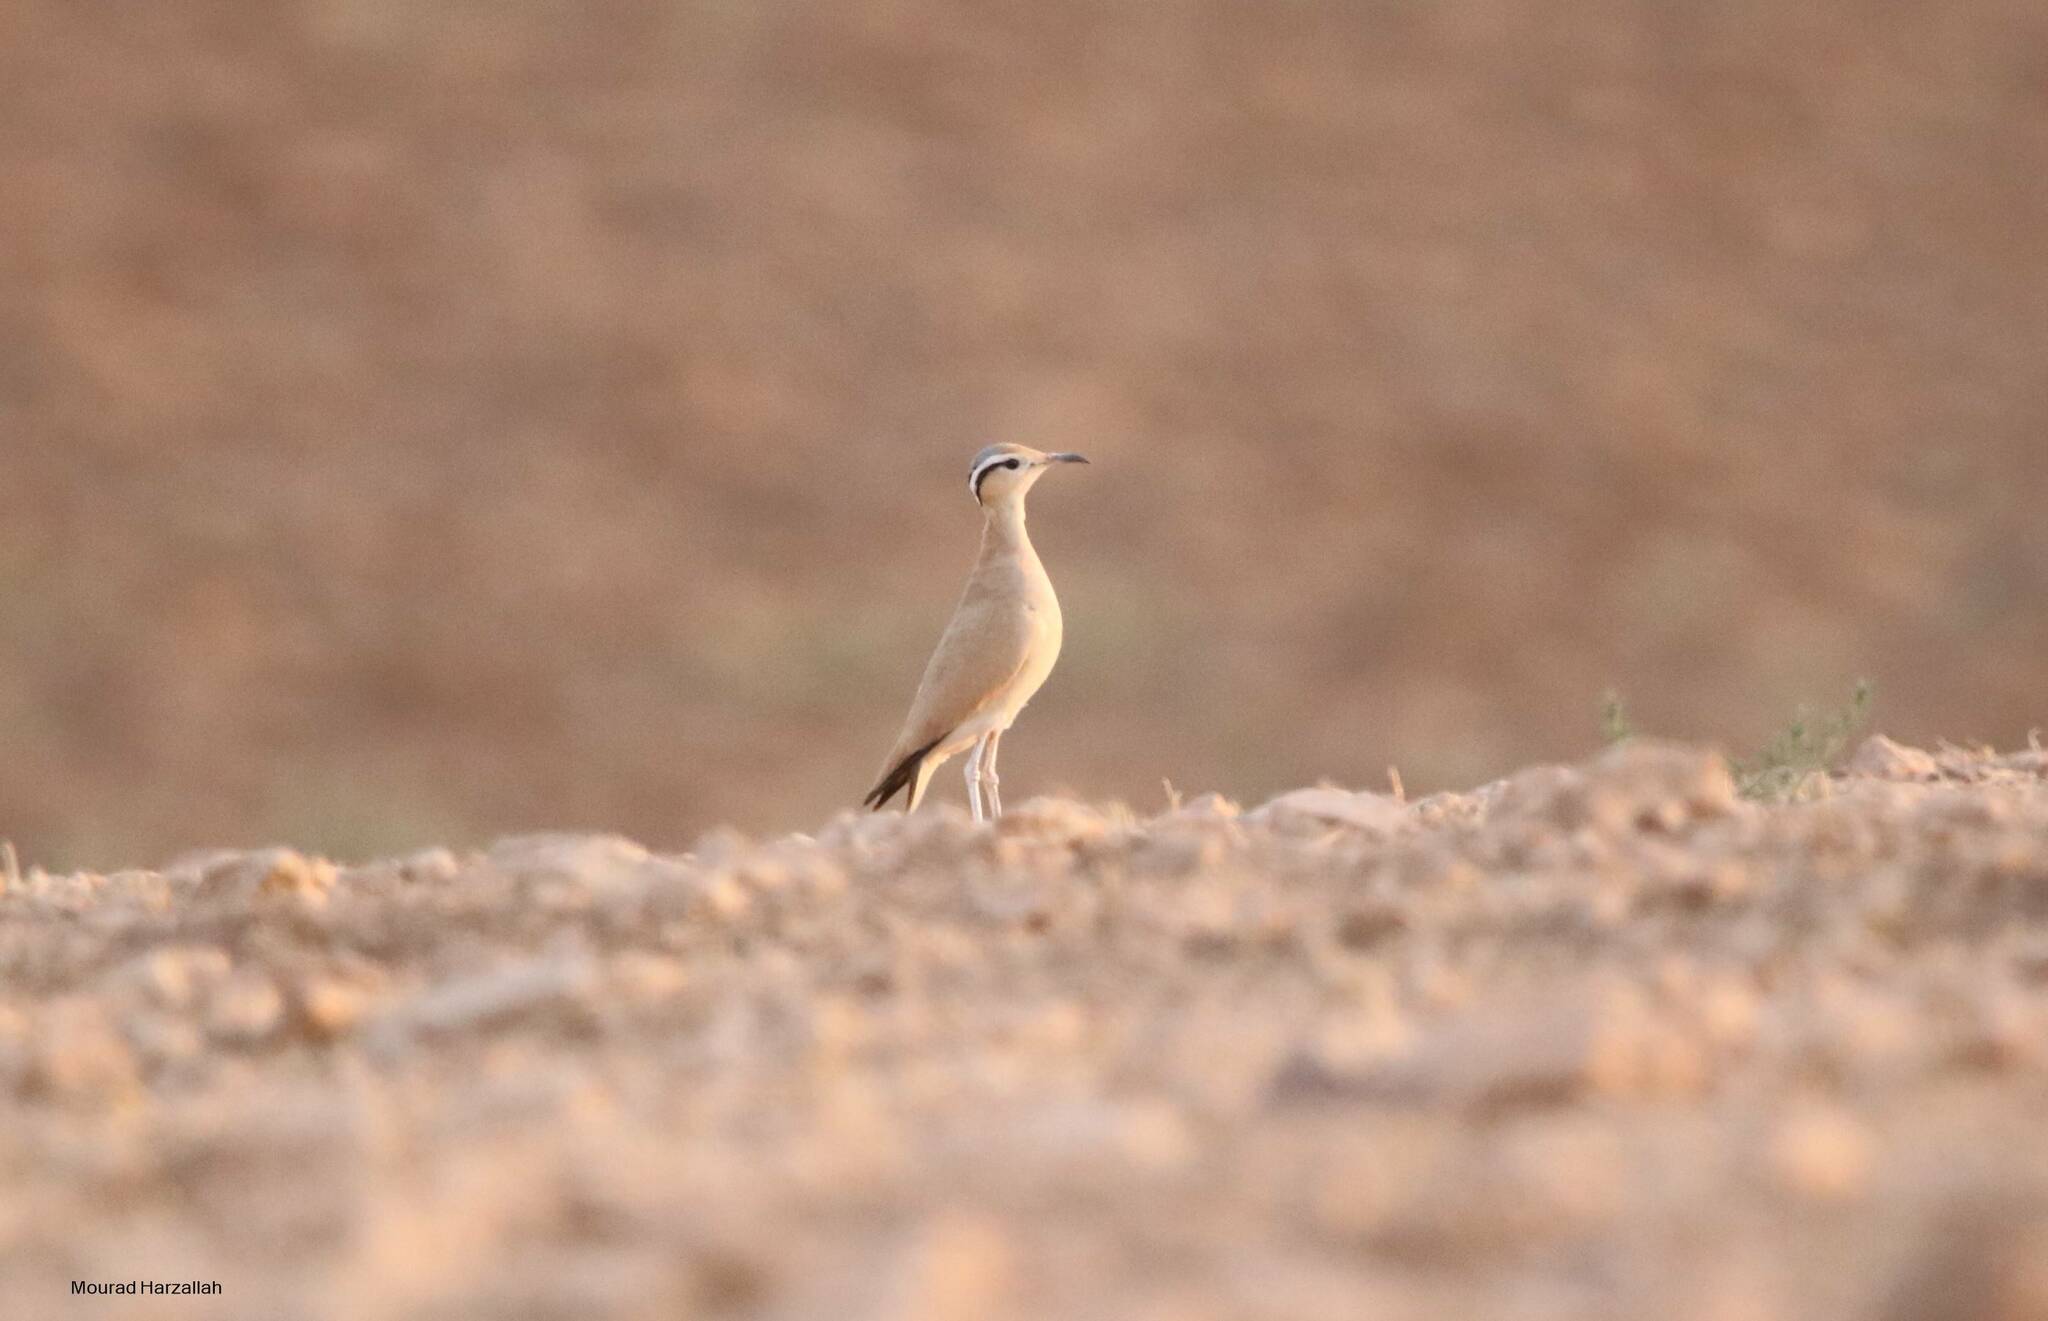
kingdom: Animalia
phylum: Chordata
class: Aves
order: Charadriiformes
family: Glareolidae
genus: Cursorius
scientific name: Cursorius cursor
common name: Cream-colored courser
